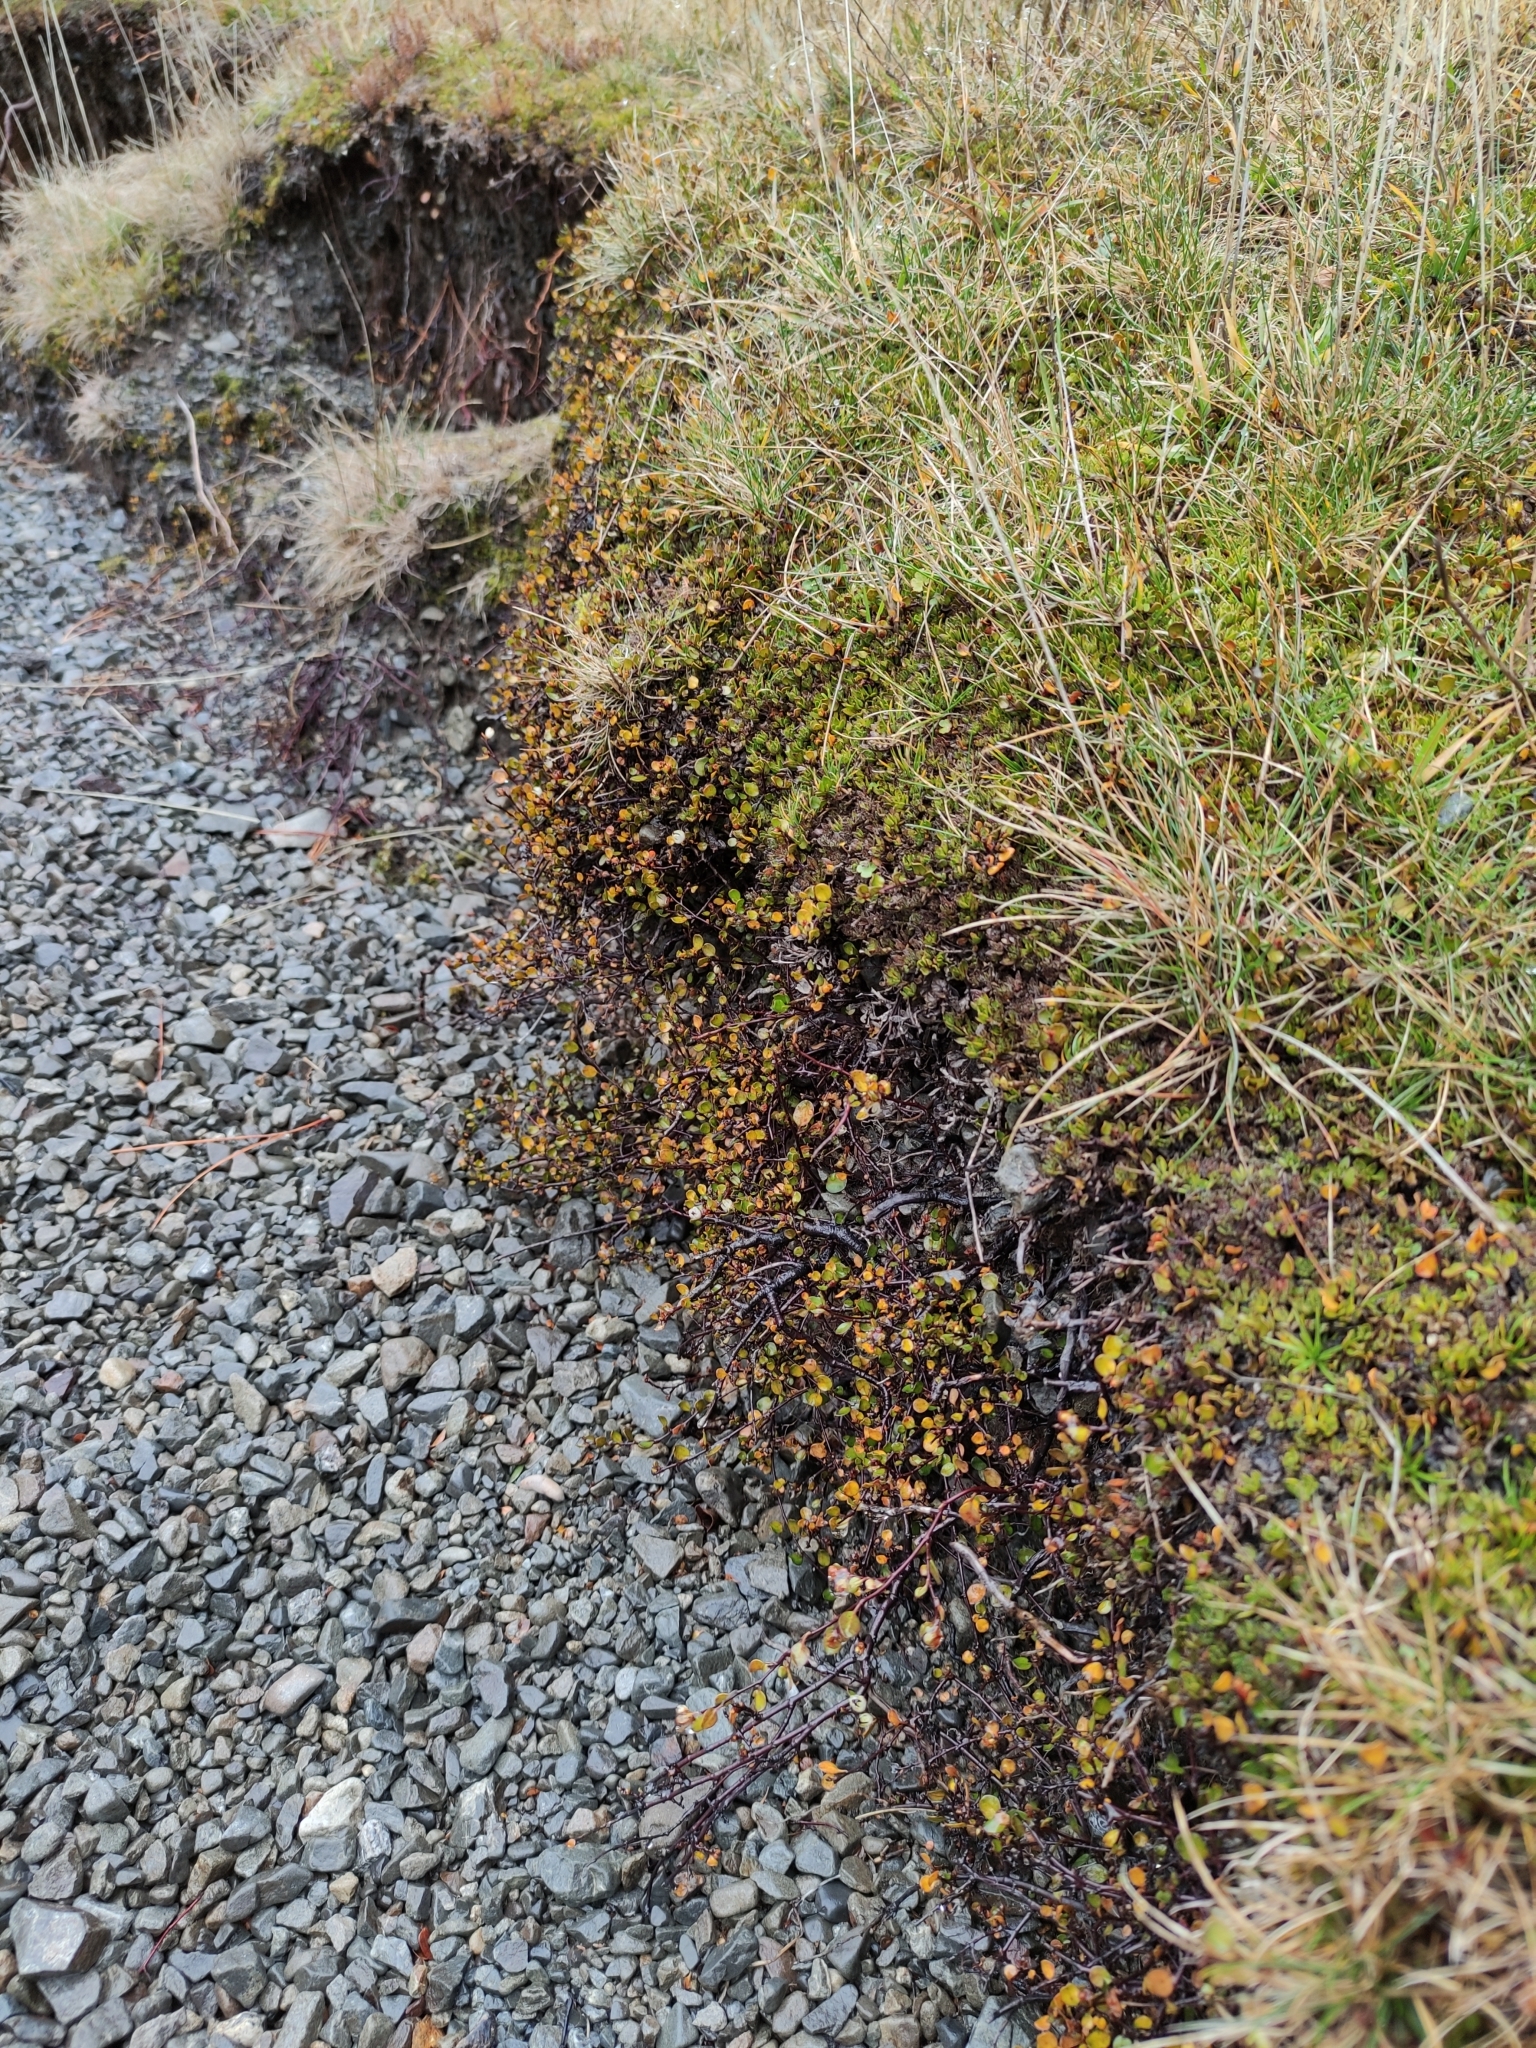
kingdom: Plantae
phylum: Tracheophyta
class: Magnoliopsida
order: Caryophyllales
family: Polygonaceae
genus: Muehlenbeckia
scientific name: Muehlenbeckia axillaris
